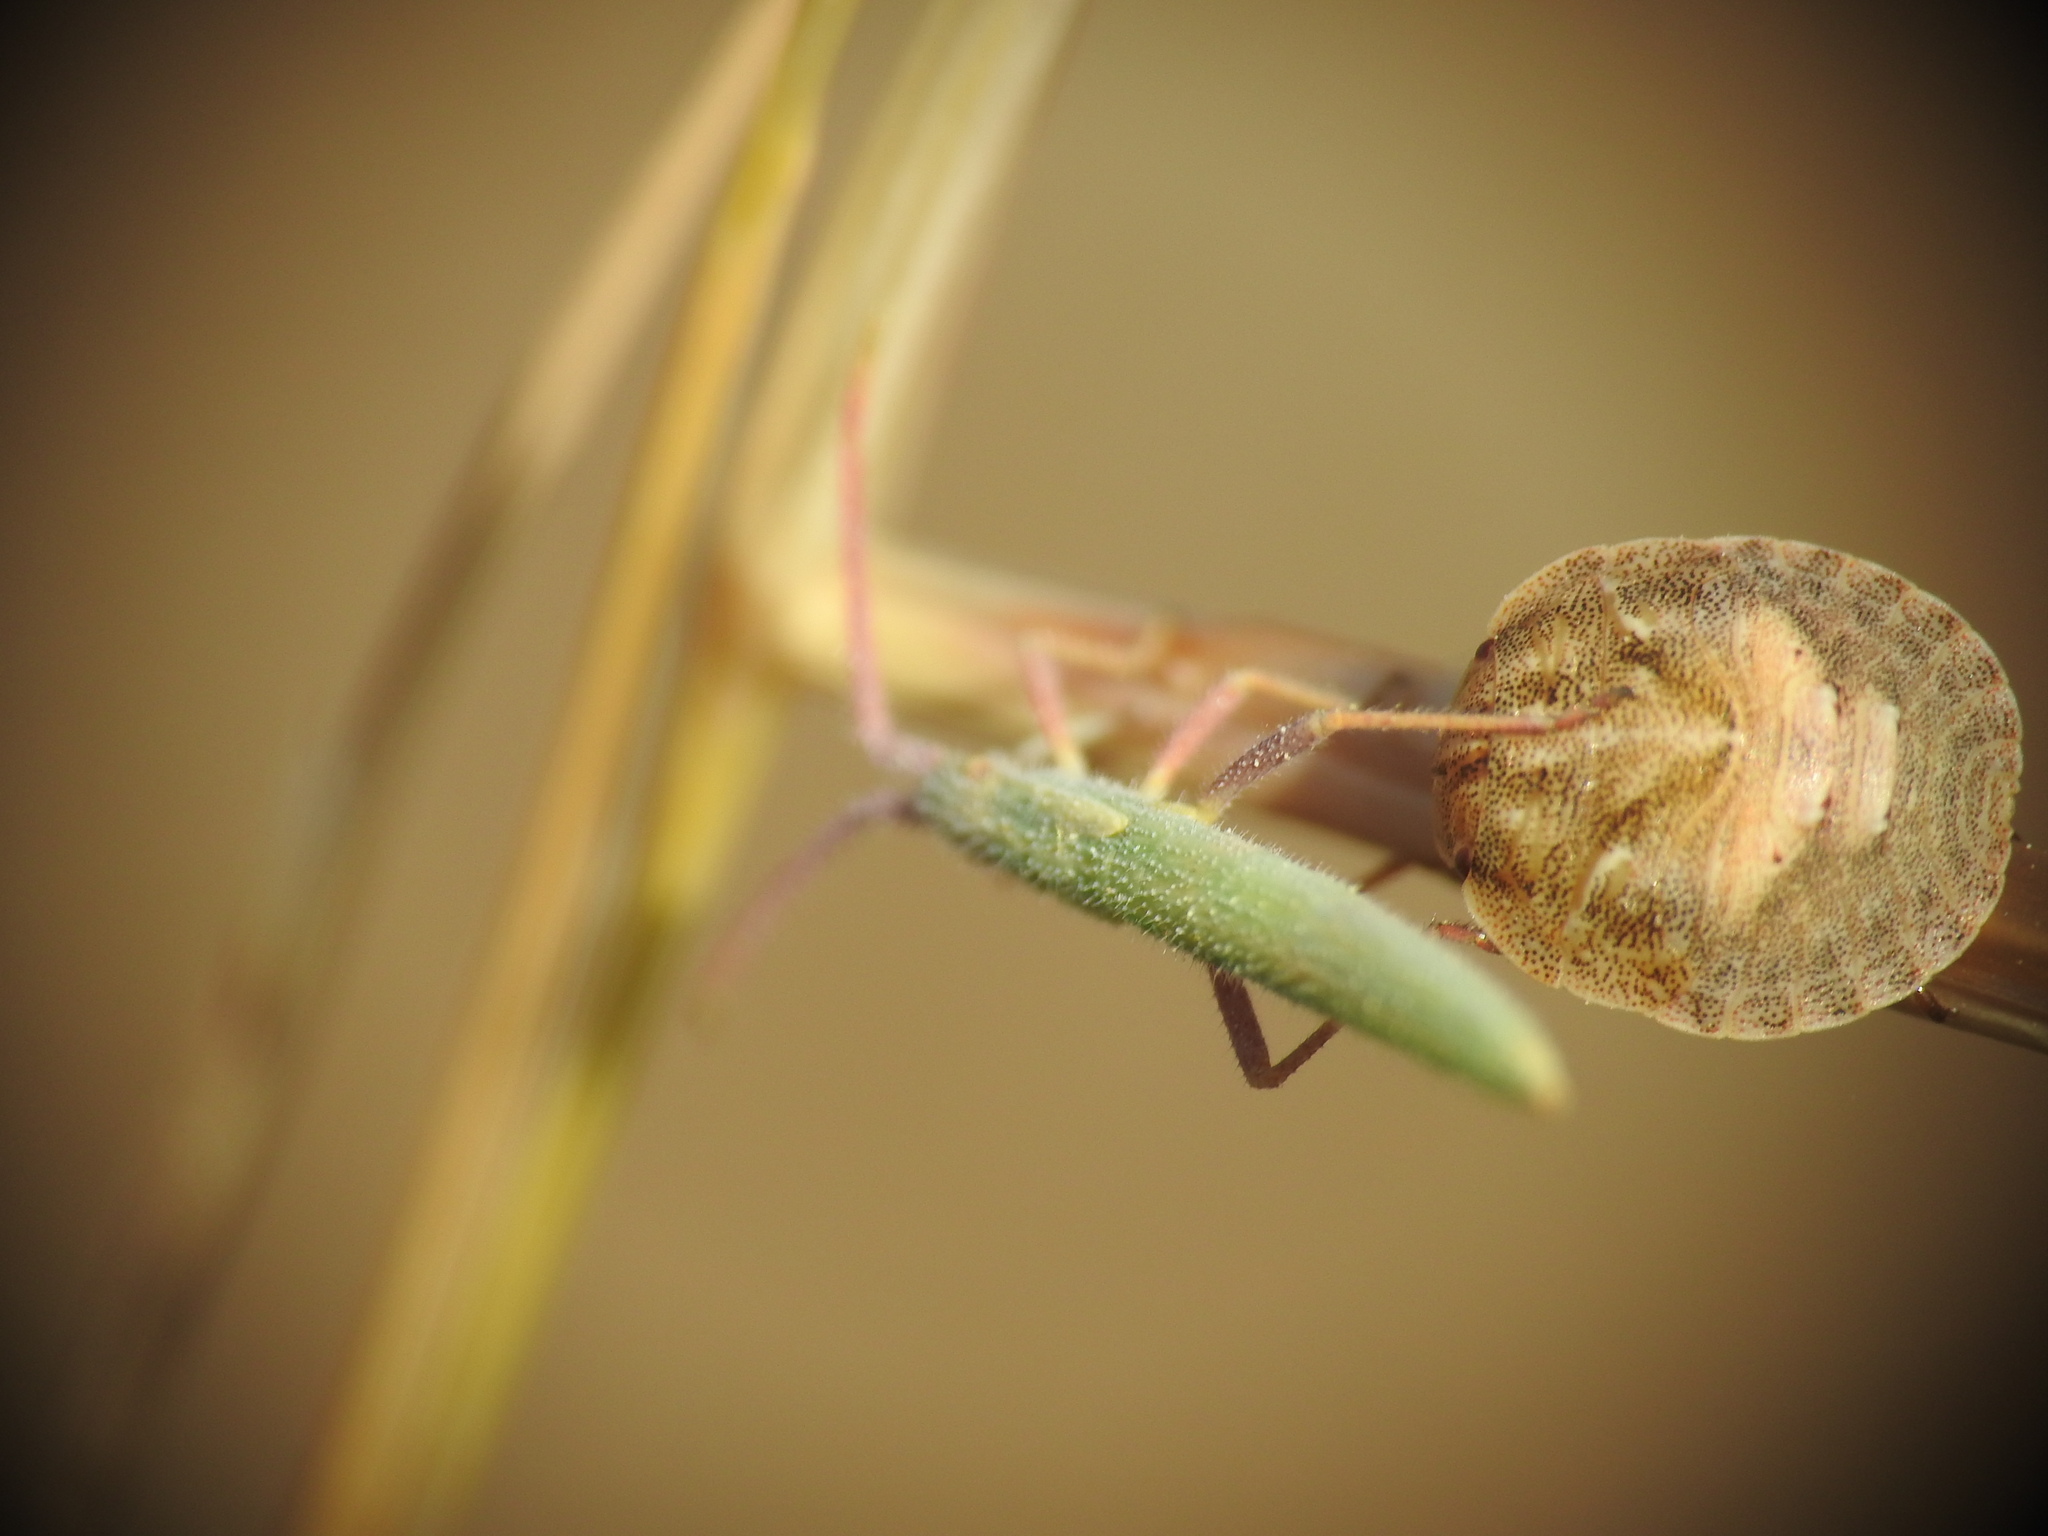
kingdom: Animalia
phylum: Arthropoda
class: Insecta
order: Hemiptera
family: Rhopalidae
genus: Chorosoma
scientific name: Chorosoma schillingii
